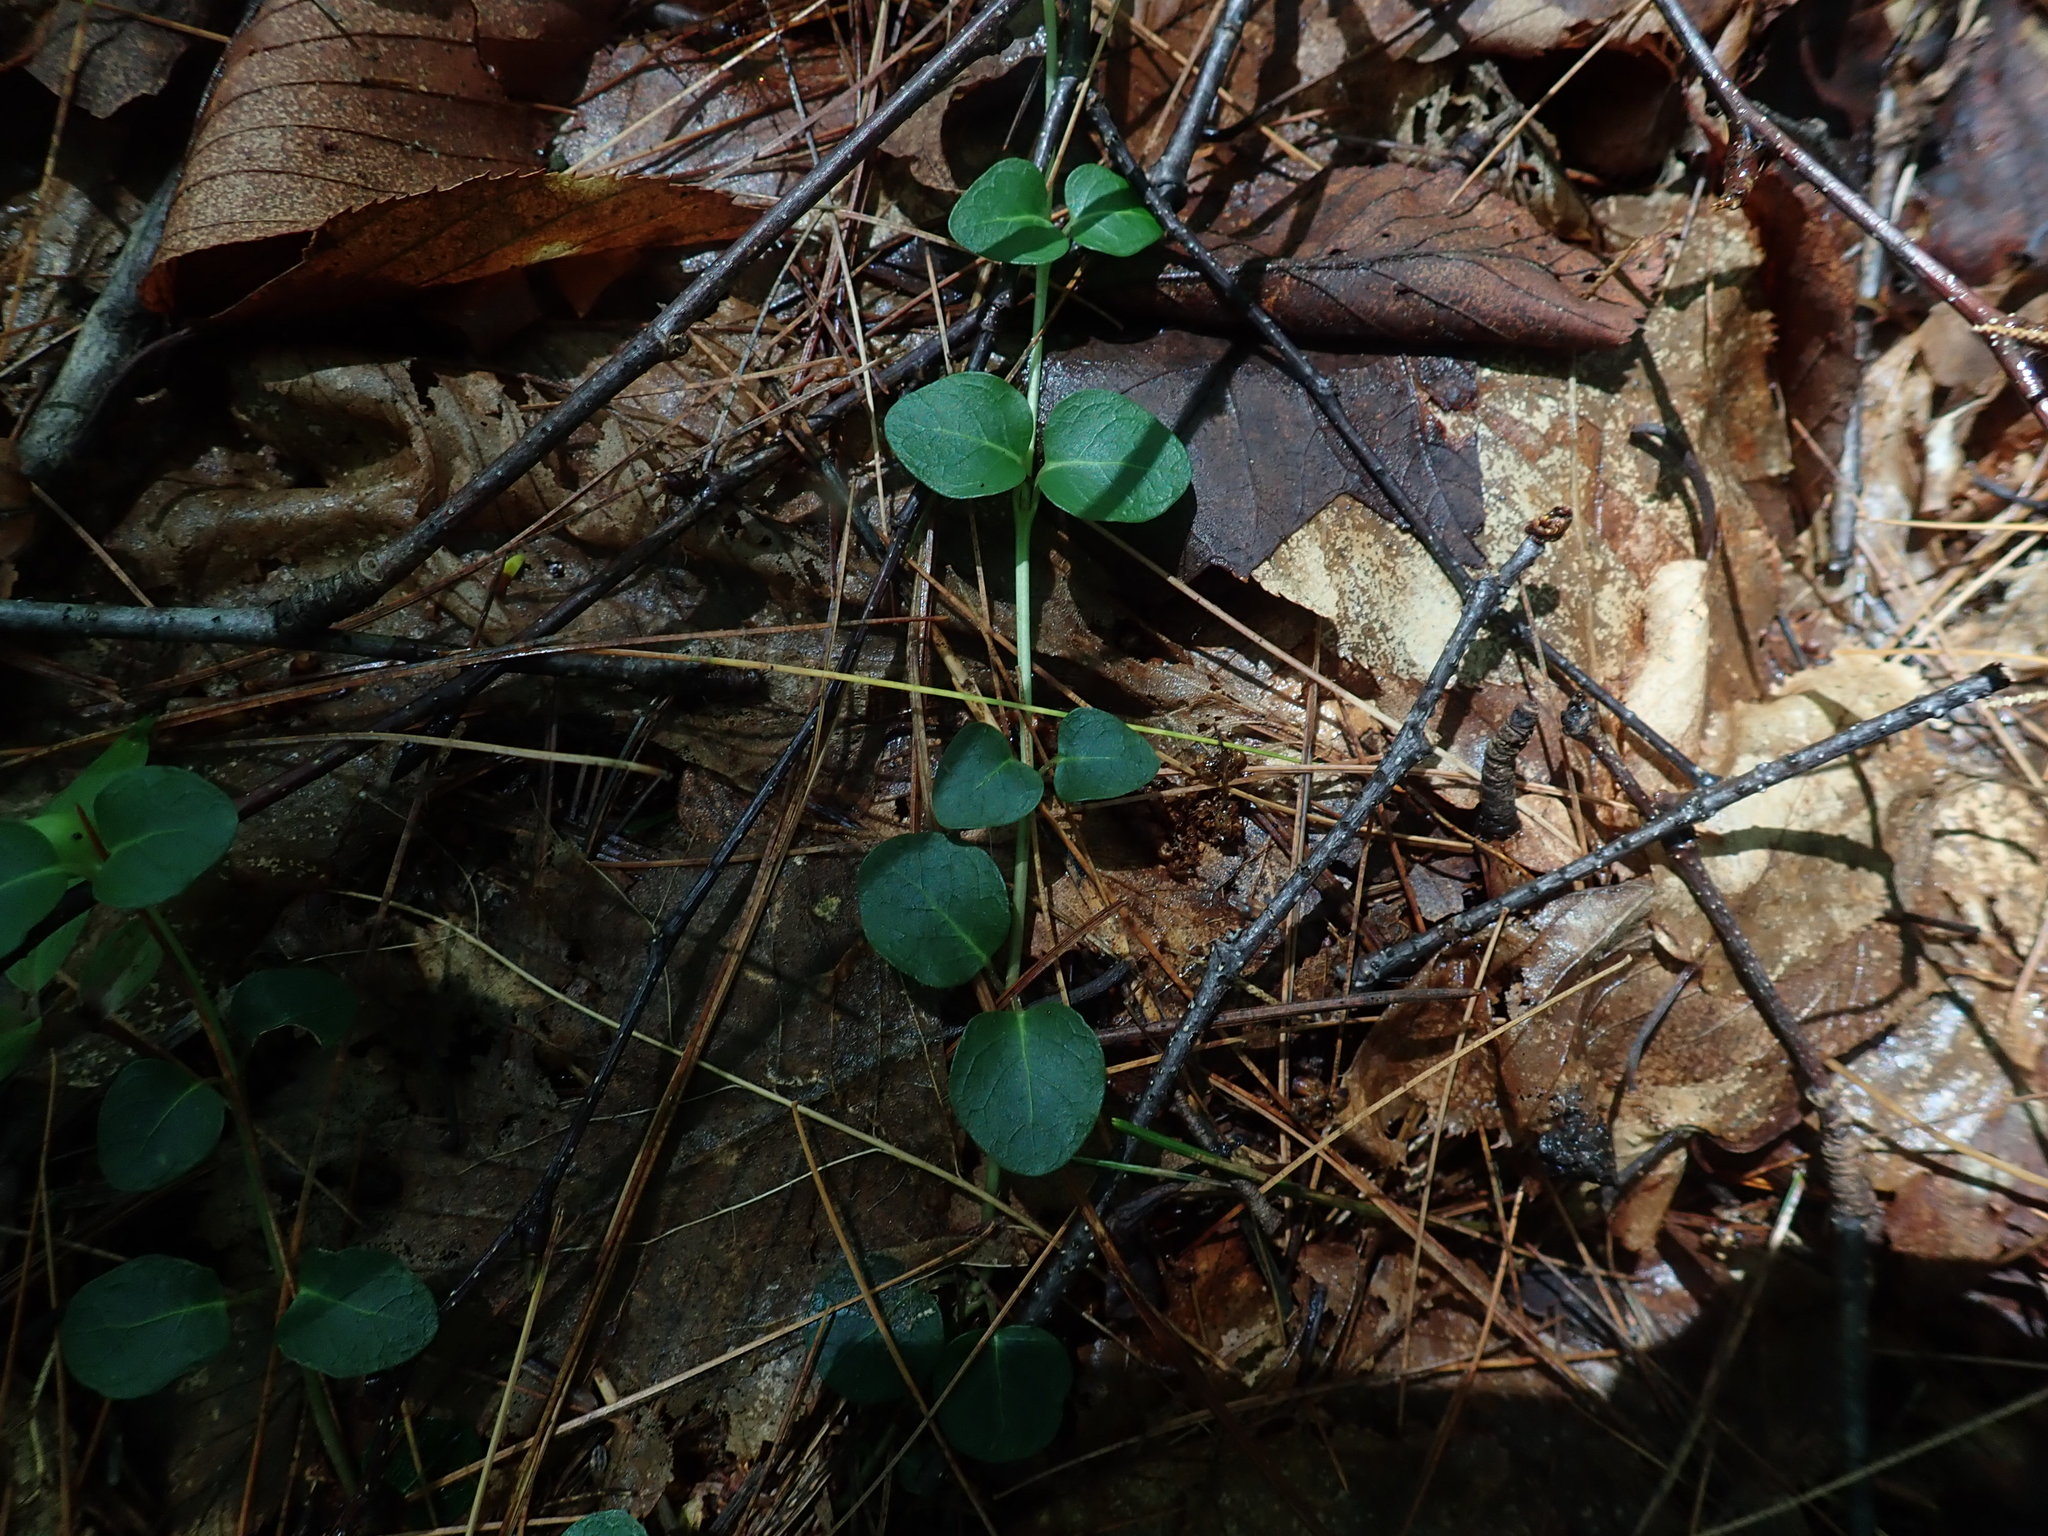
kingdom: Plantae
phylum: Tracheophyta
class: Magnoliopsida
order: Gentianales
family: Rubiaceae
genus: Mitchella
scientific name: Mitchella repens
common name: Partridge-berry
